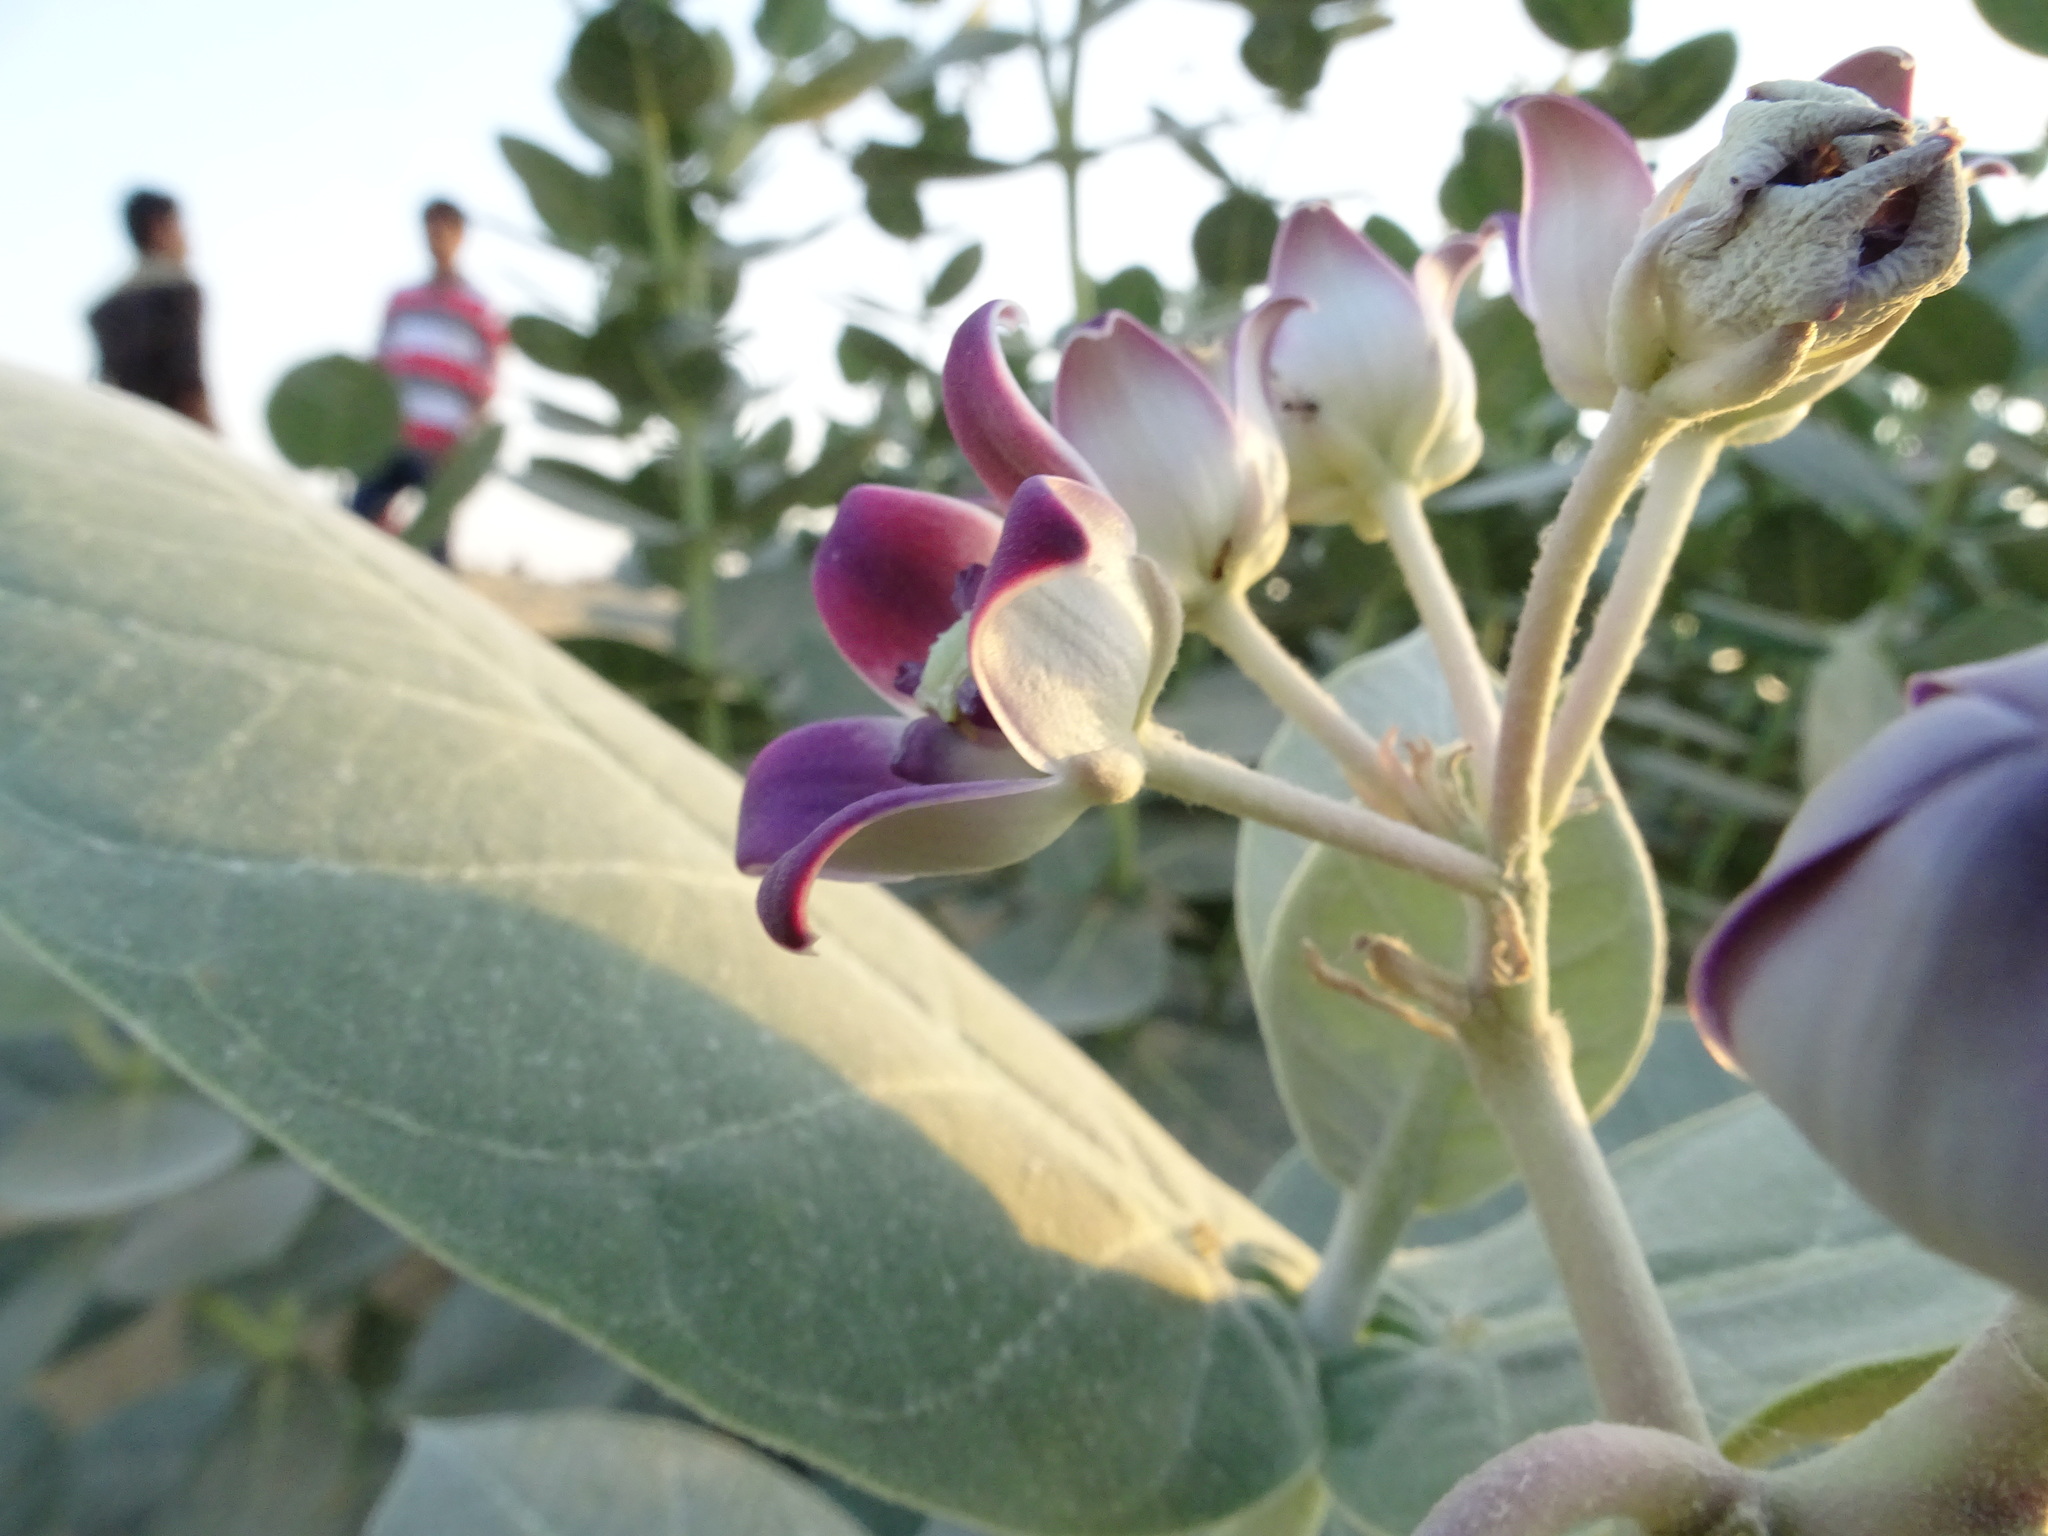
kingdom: Plantae
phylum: Tracheophyta
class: Magnoliopsida
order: Gentianales
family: Apocynaceae
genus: Calotropis
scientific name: Calotropis procera
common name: Roostertree
